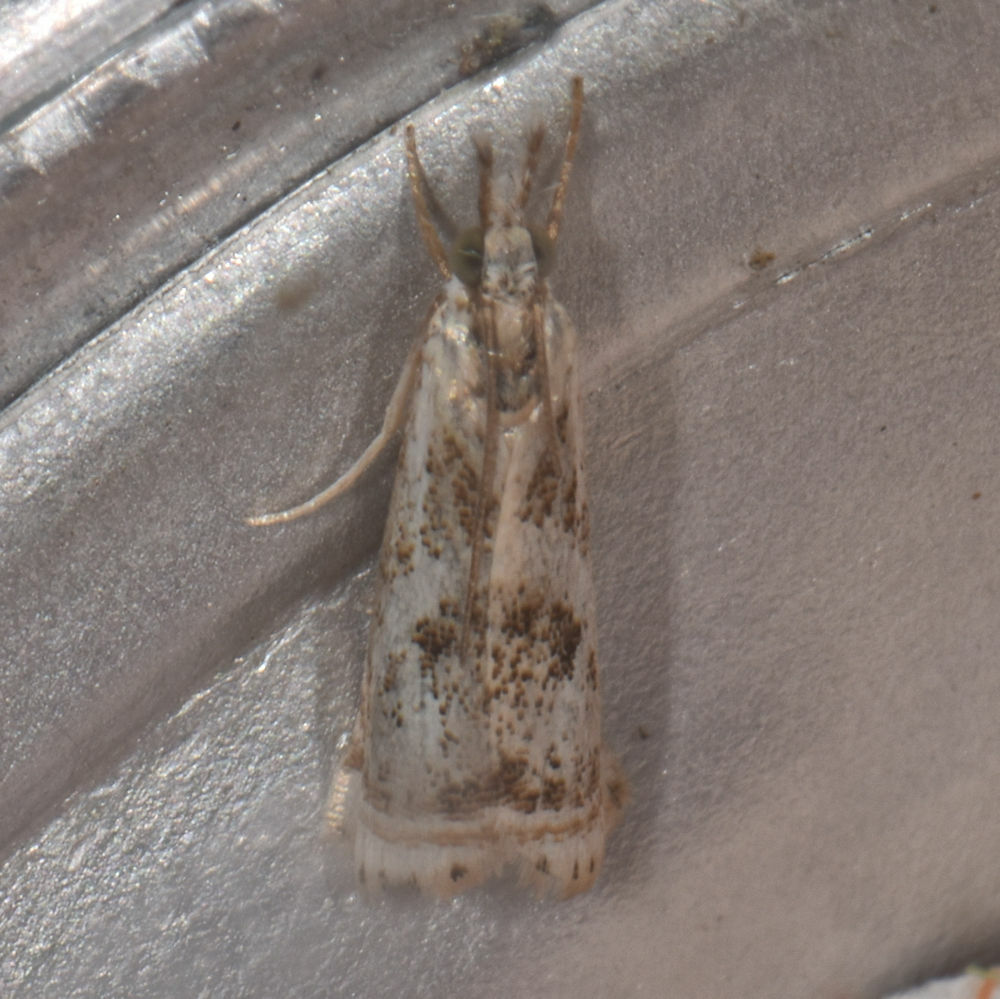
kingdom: Animalia
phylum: Arthropoda
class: Insecta
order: Lepidoptera
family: Crambidae
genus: Microcrambus
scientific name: Microcrambus elegans
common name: Elegant grass-veneer
